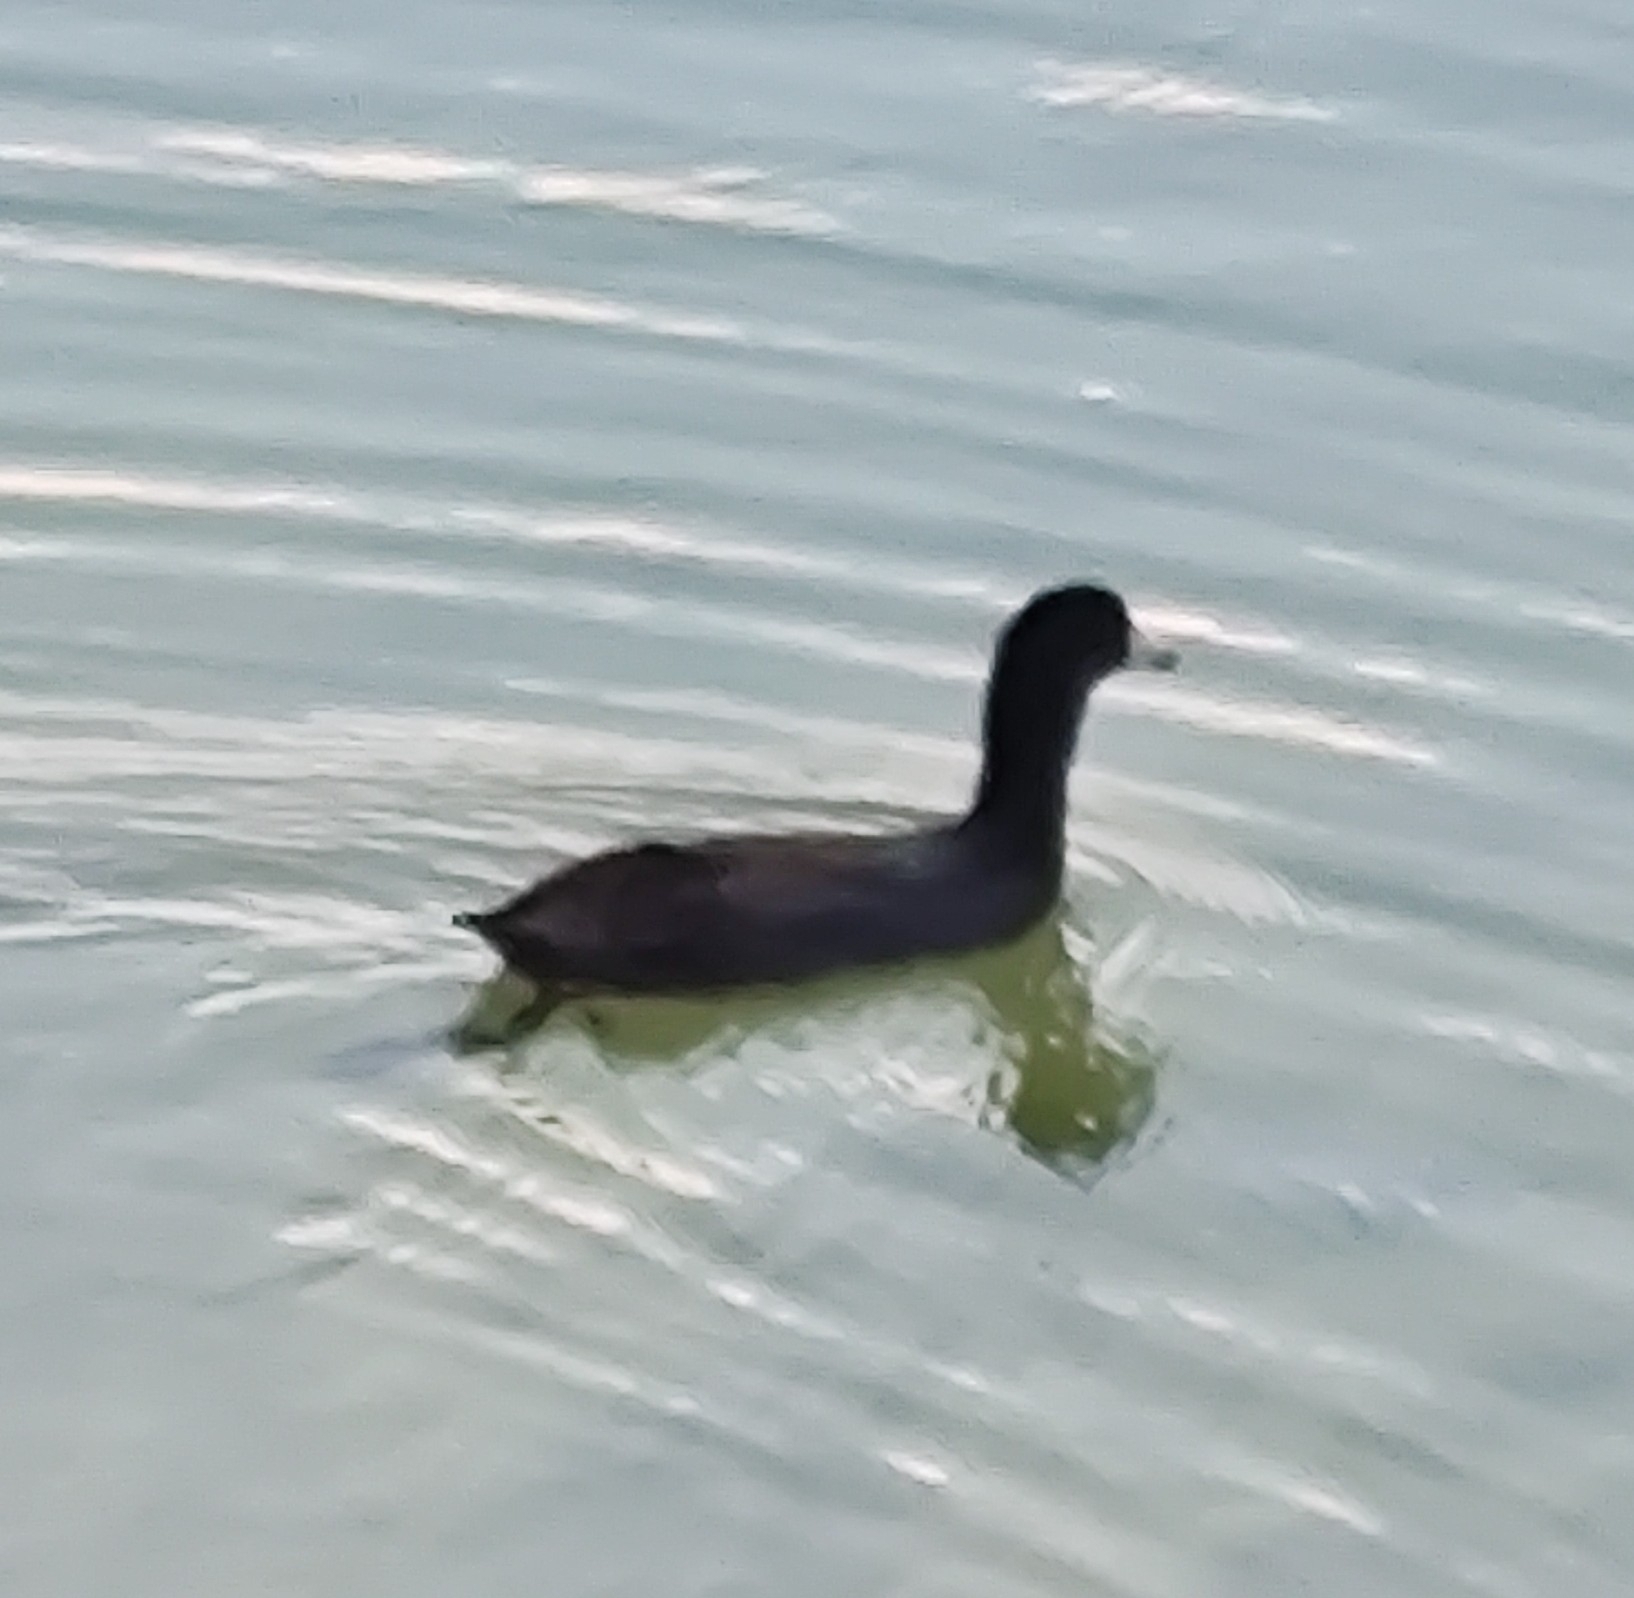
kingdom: Animalia
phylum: Chordata
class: Aves
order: Gruiformes
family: Rallidae
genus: Fulica
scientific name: Fulica americana
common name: American coot
